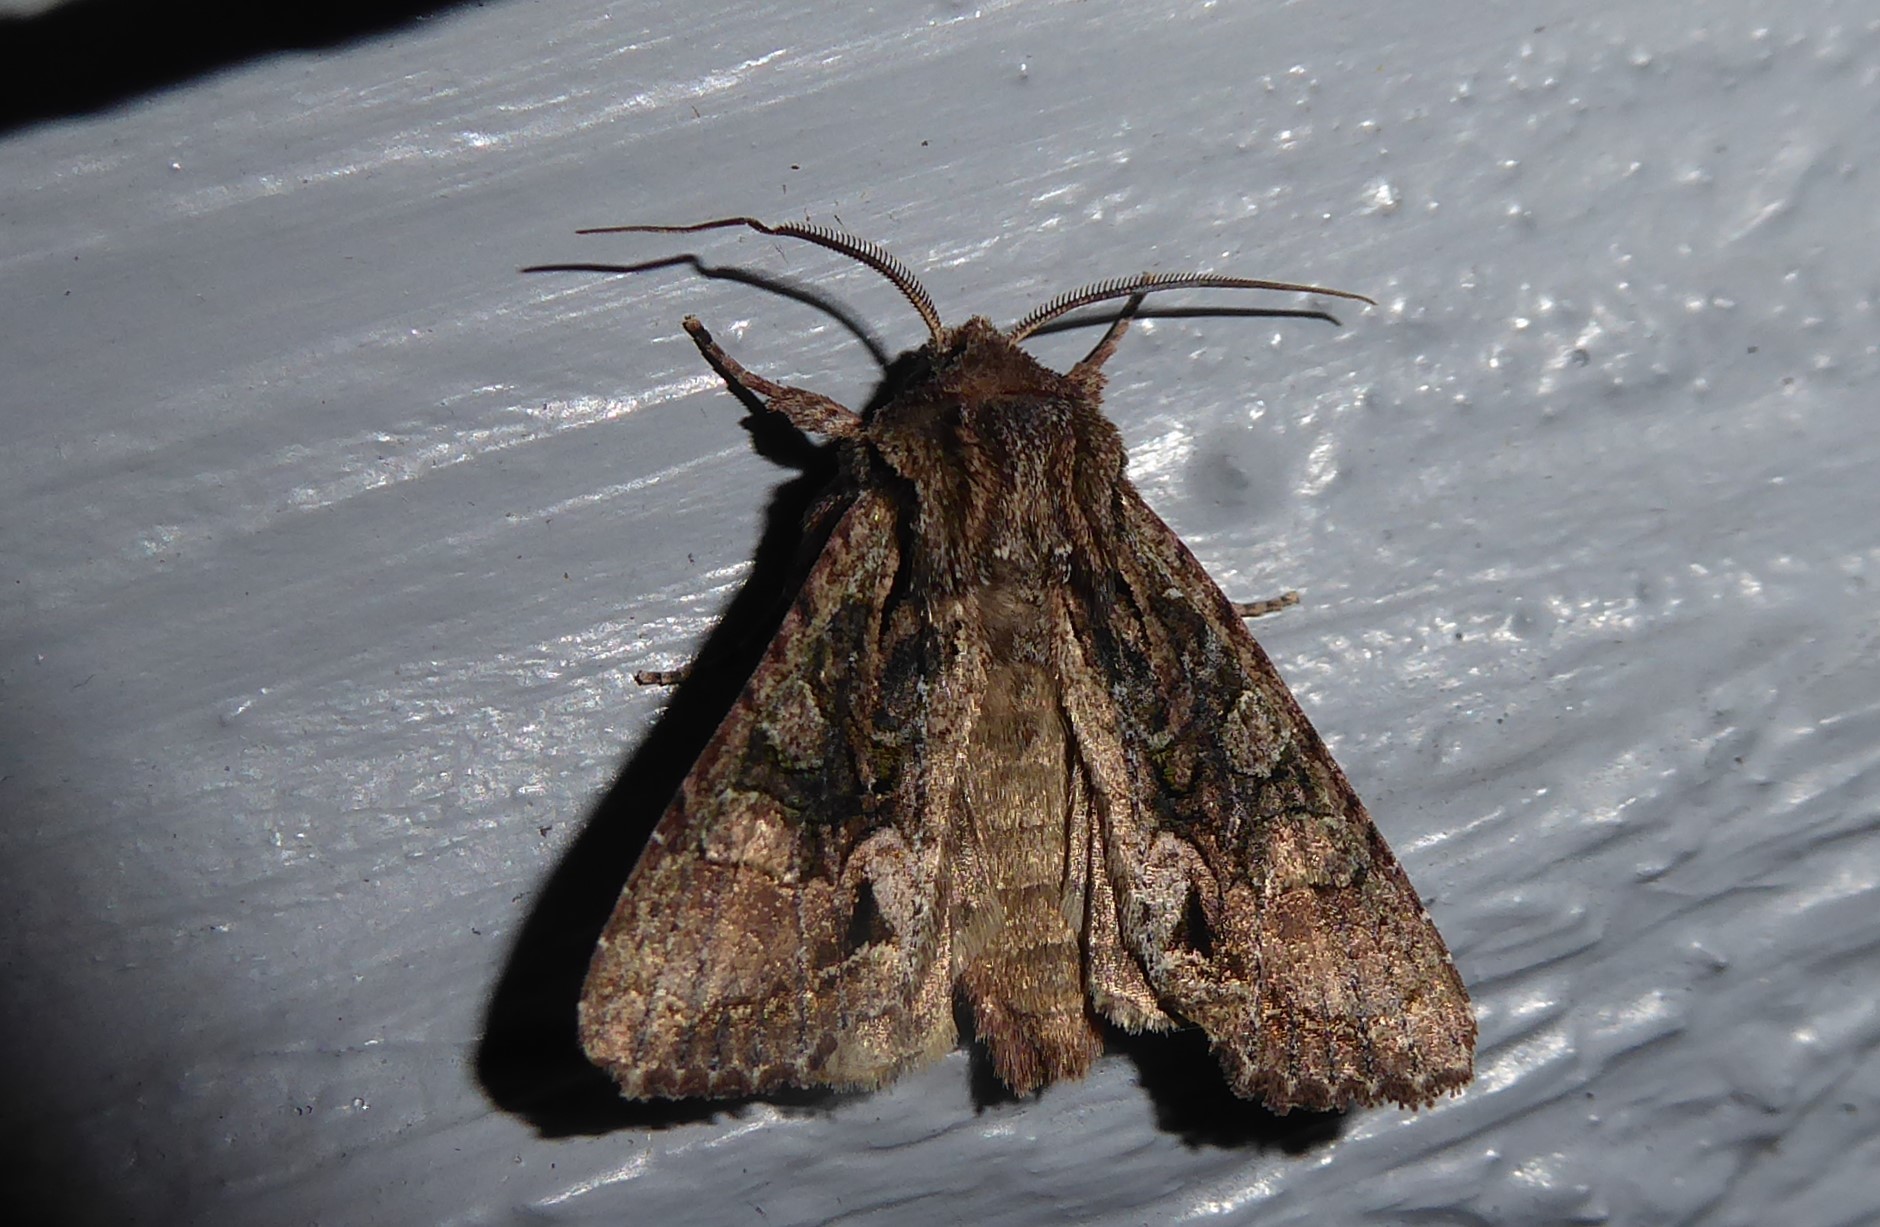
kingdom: Animalia
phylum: Arthropoda
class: Insecta
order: Lepidoptera
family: Noctuidae
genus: Ichneutica
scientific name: Ichneutica mutans
